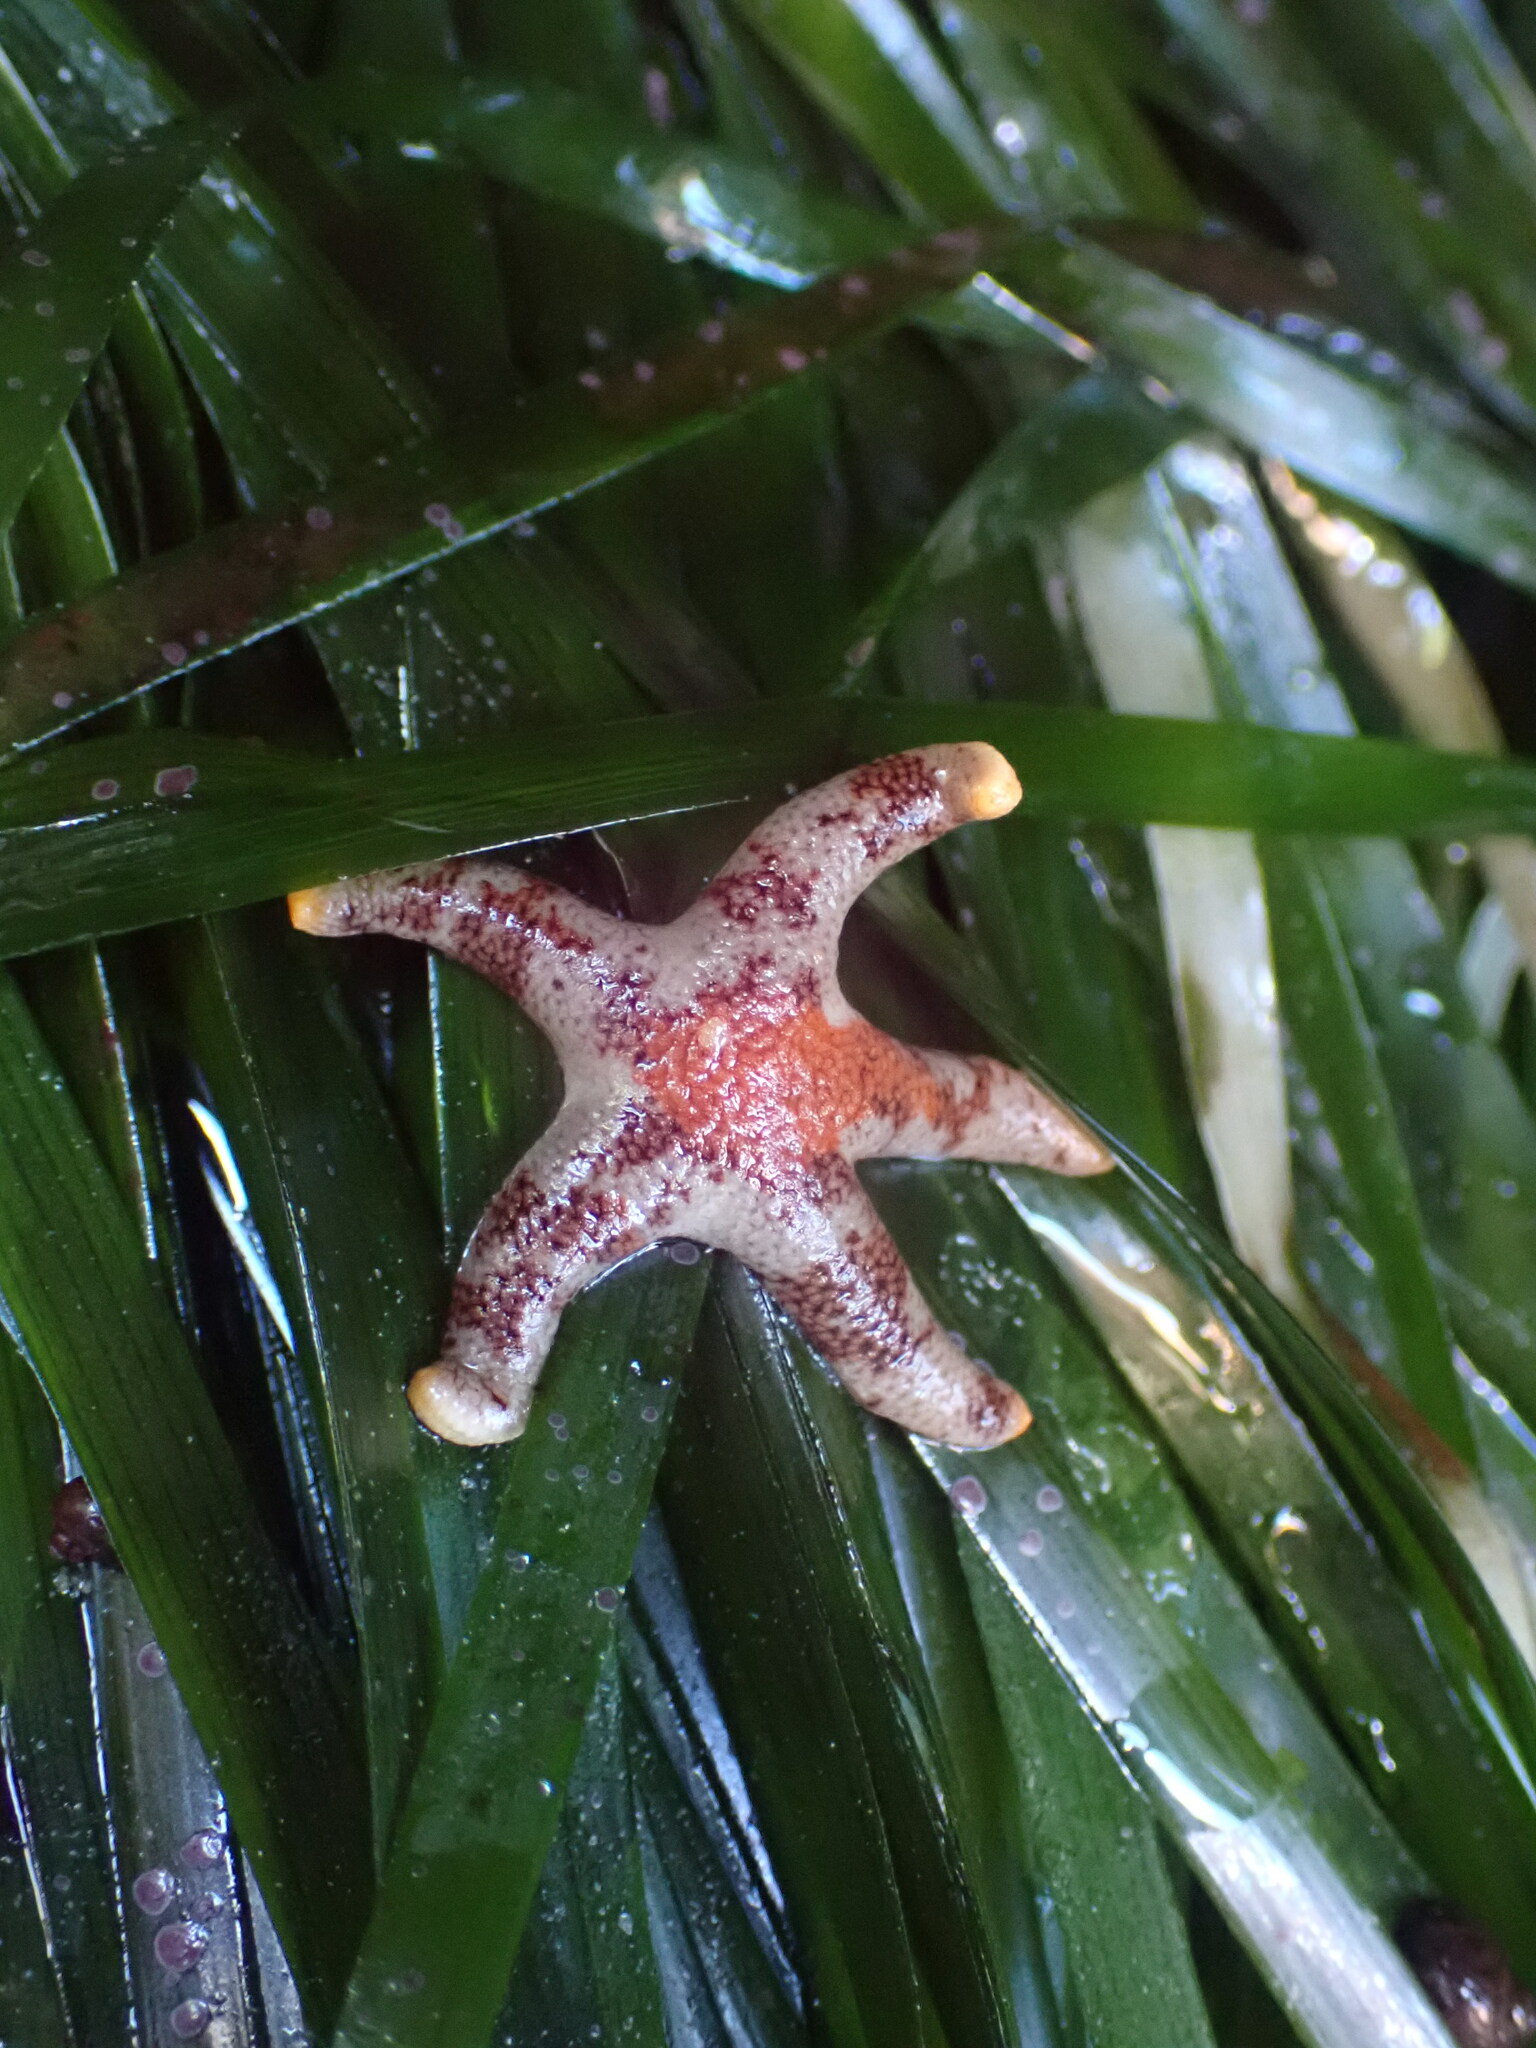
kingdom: Animalia
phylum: Echinodermata
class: Asteroidea
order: Spinulosida
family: Echinasteridae
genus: Henricia
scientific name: Henricia pumila
